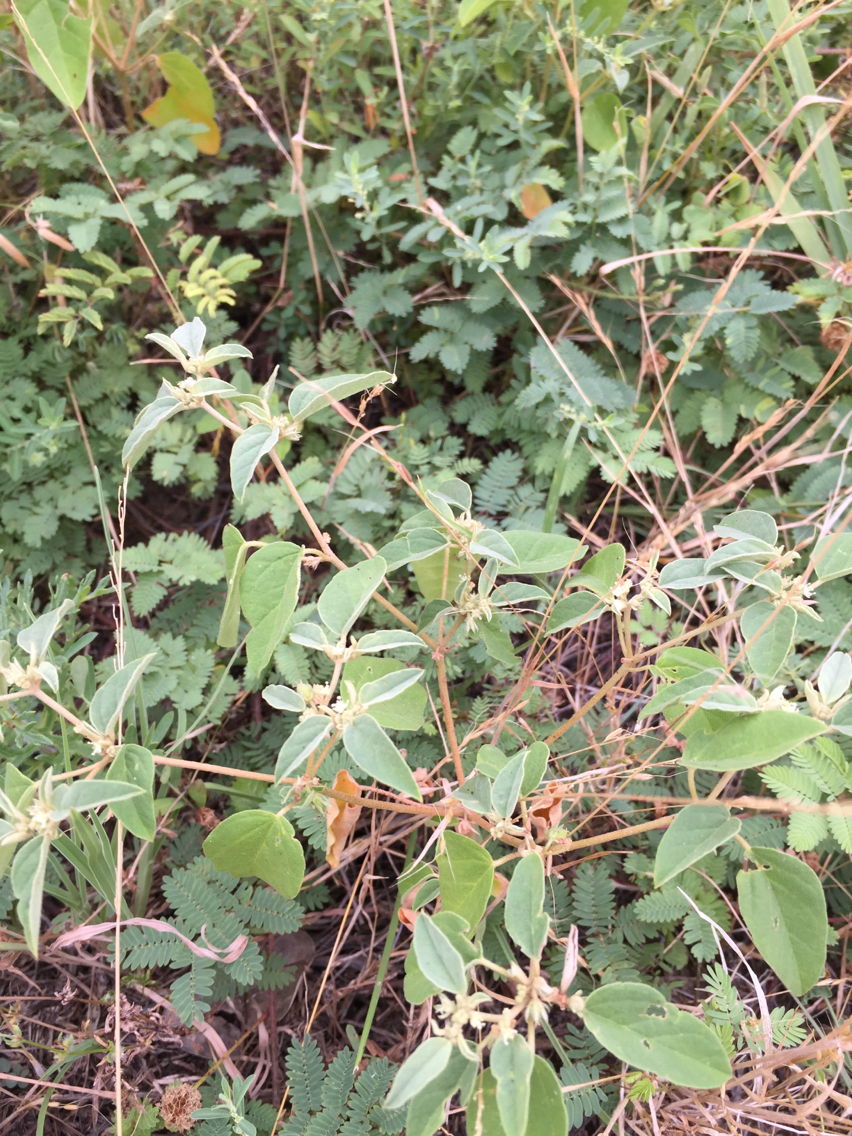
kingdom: Plantae
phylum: Tracheophyta
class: Magnoliopsida
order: Malpighiales
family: Euphorbiaceae
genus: Croton
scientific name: Croton monanthogynus
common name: One-seed croton
